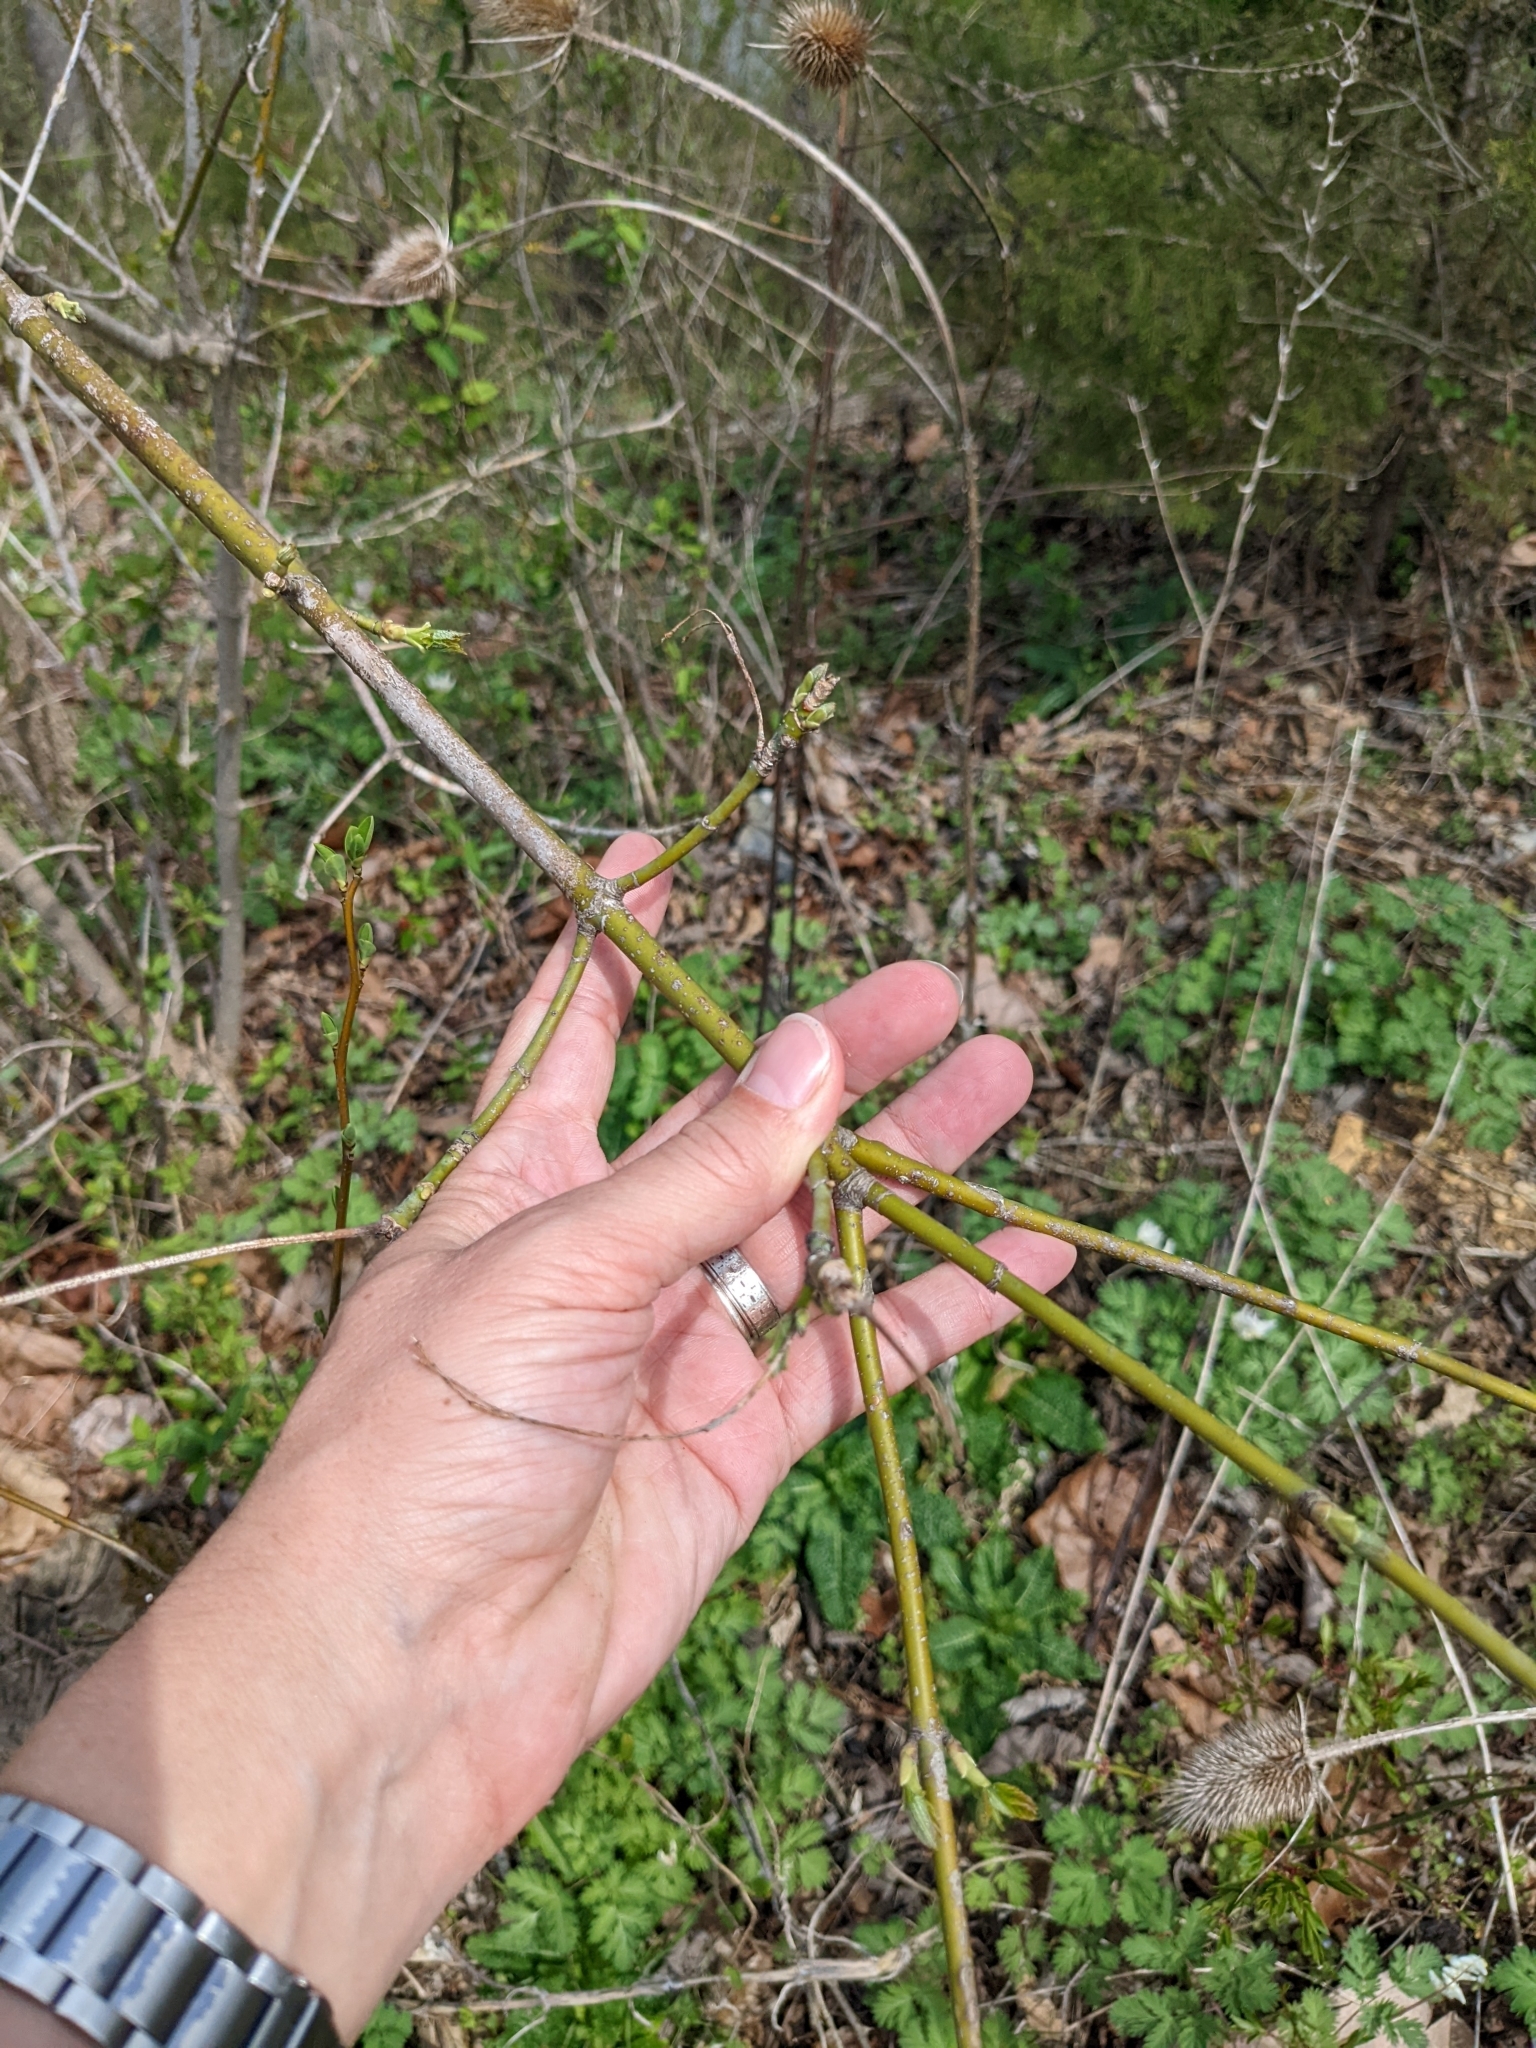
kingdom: Plantae
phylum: Tracheophyta
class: Magnoliopsida
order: Sapindales
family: Sapindaceae
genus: Acer
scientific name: Acer negundo
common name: Ashleaf maple
